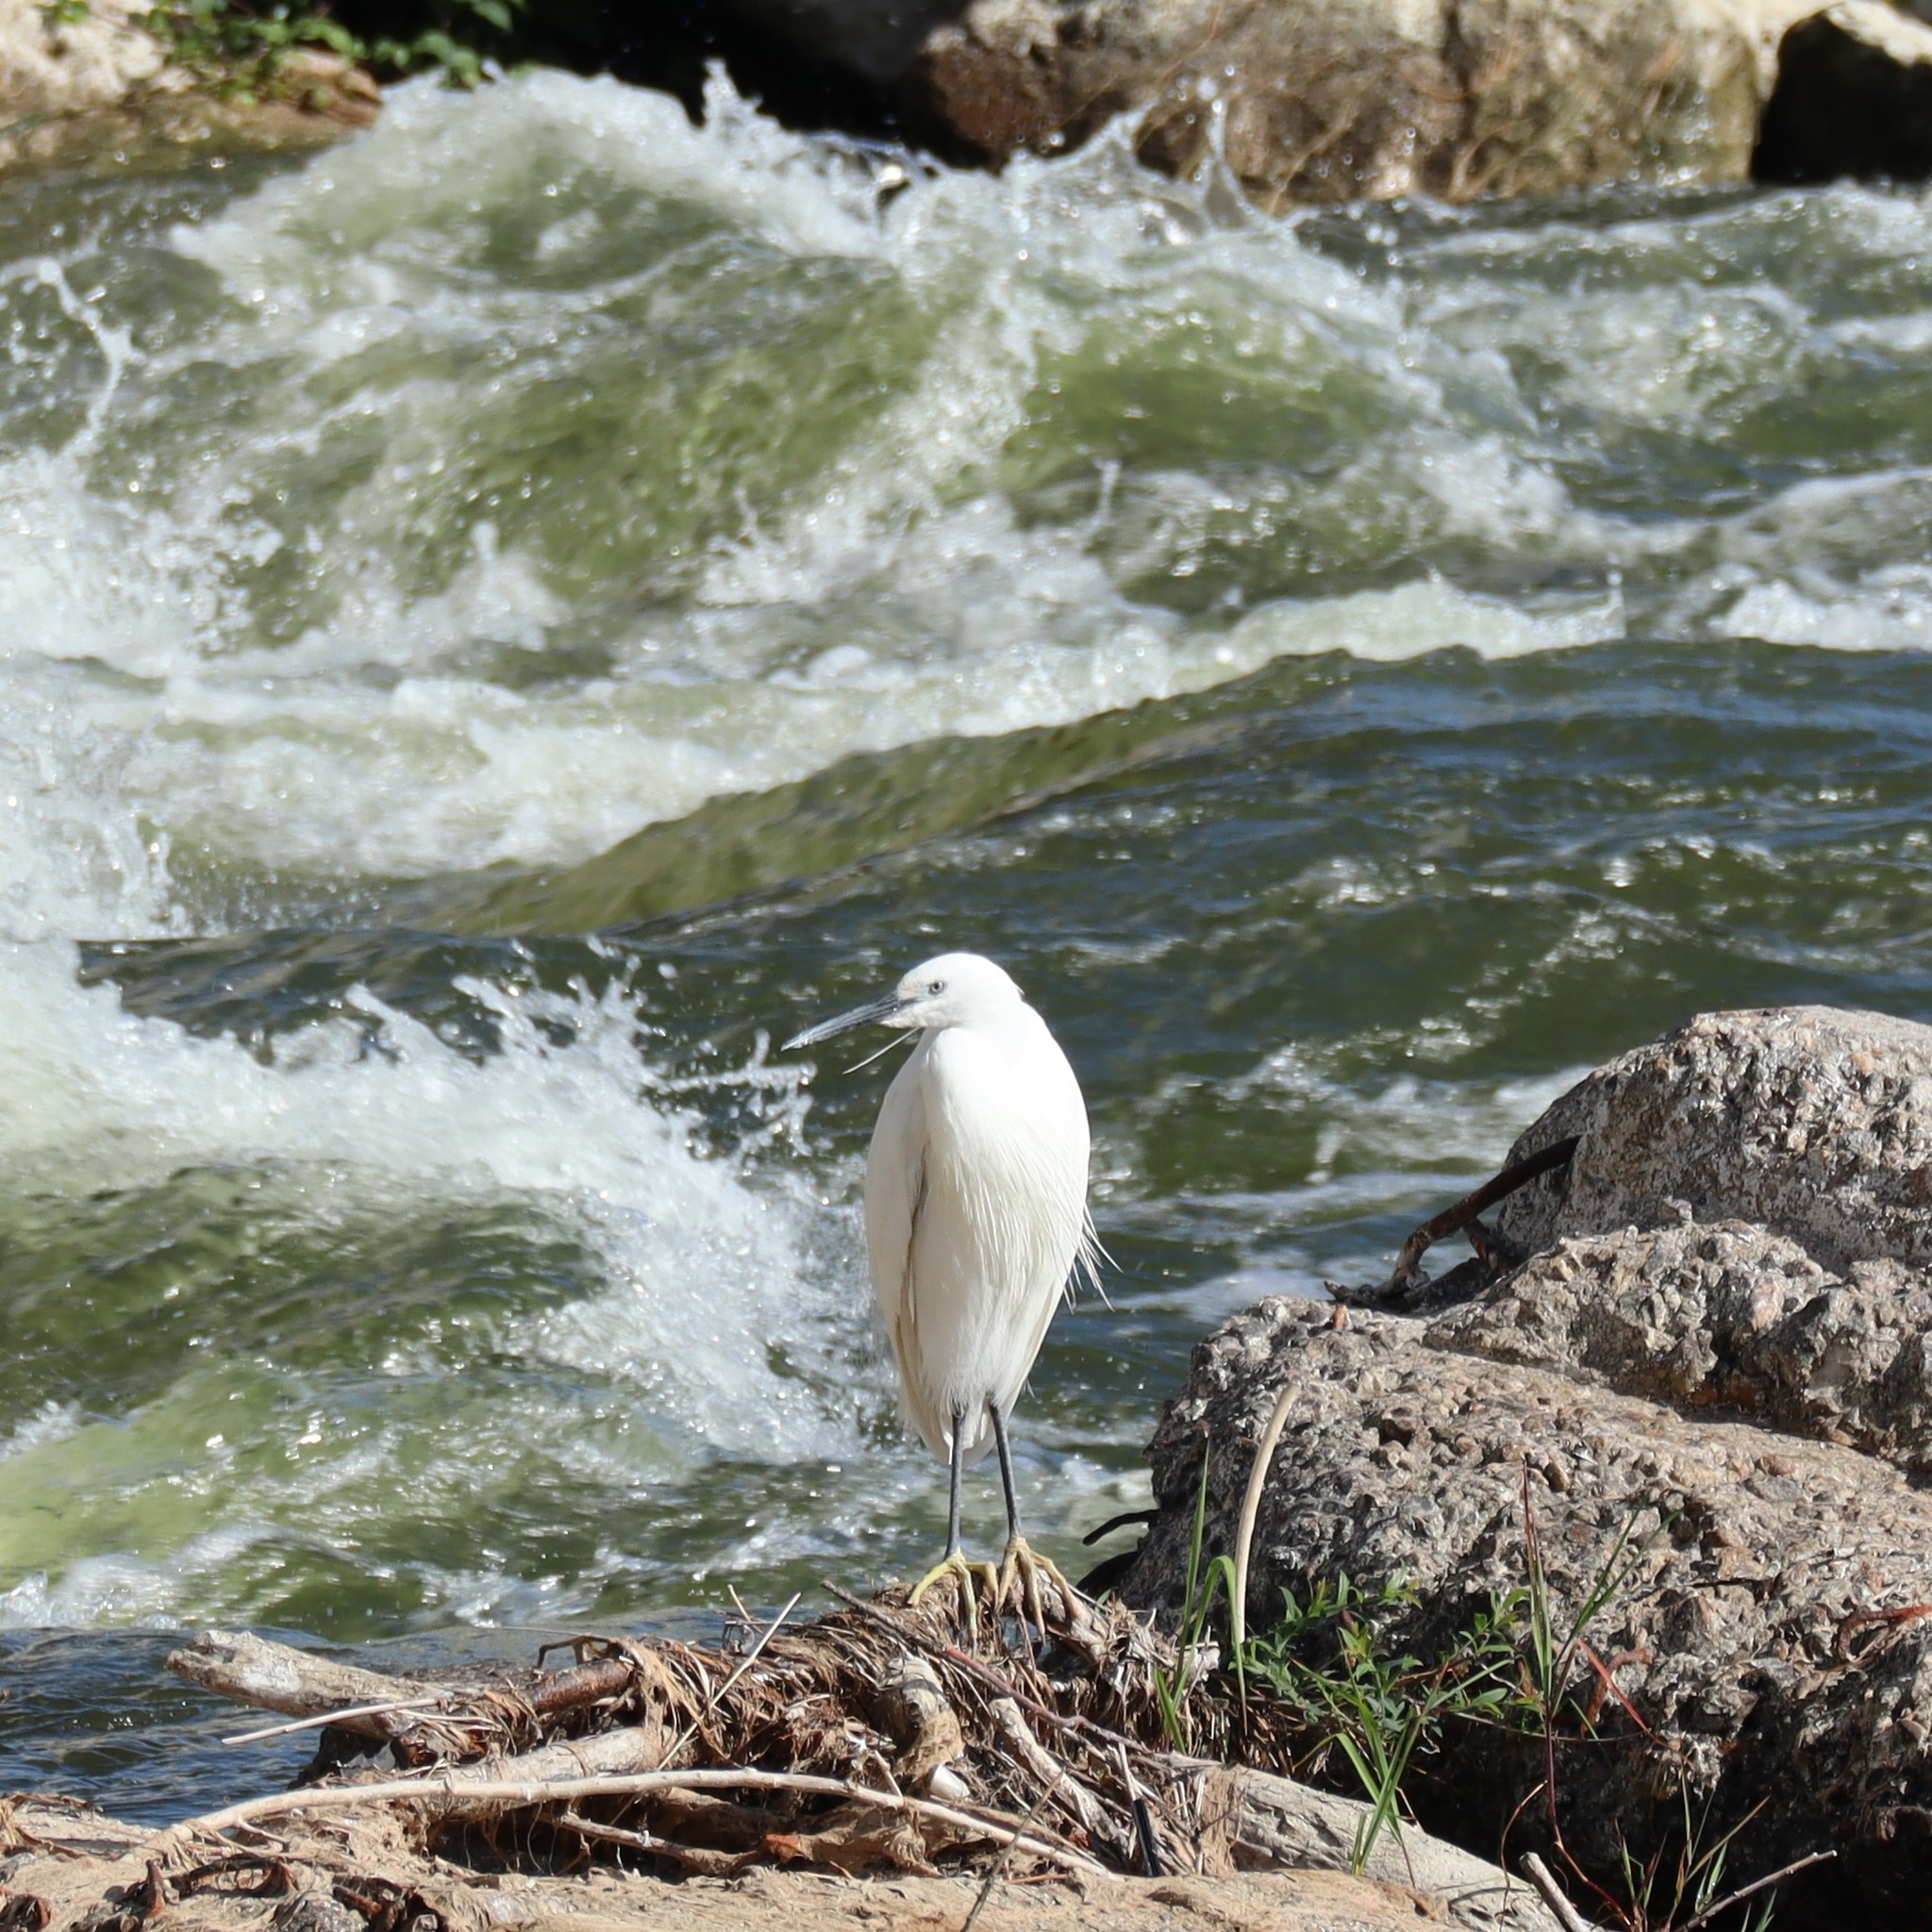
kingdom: Animalia
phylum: Chordata
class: Aves
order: Pelecaniformes
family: Ardeidae
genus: Egretta
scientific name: Egretta garzetta
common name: Little egret
